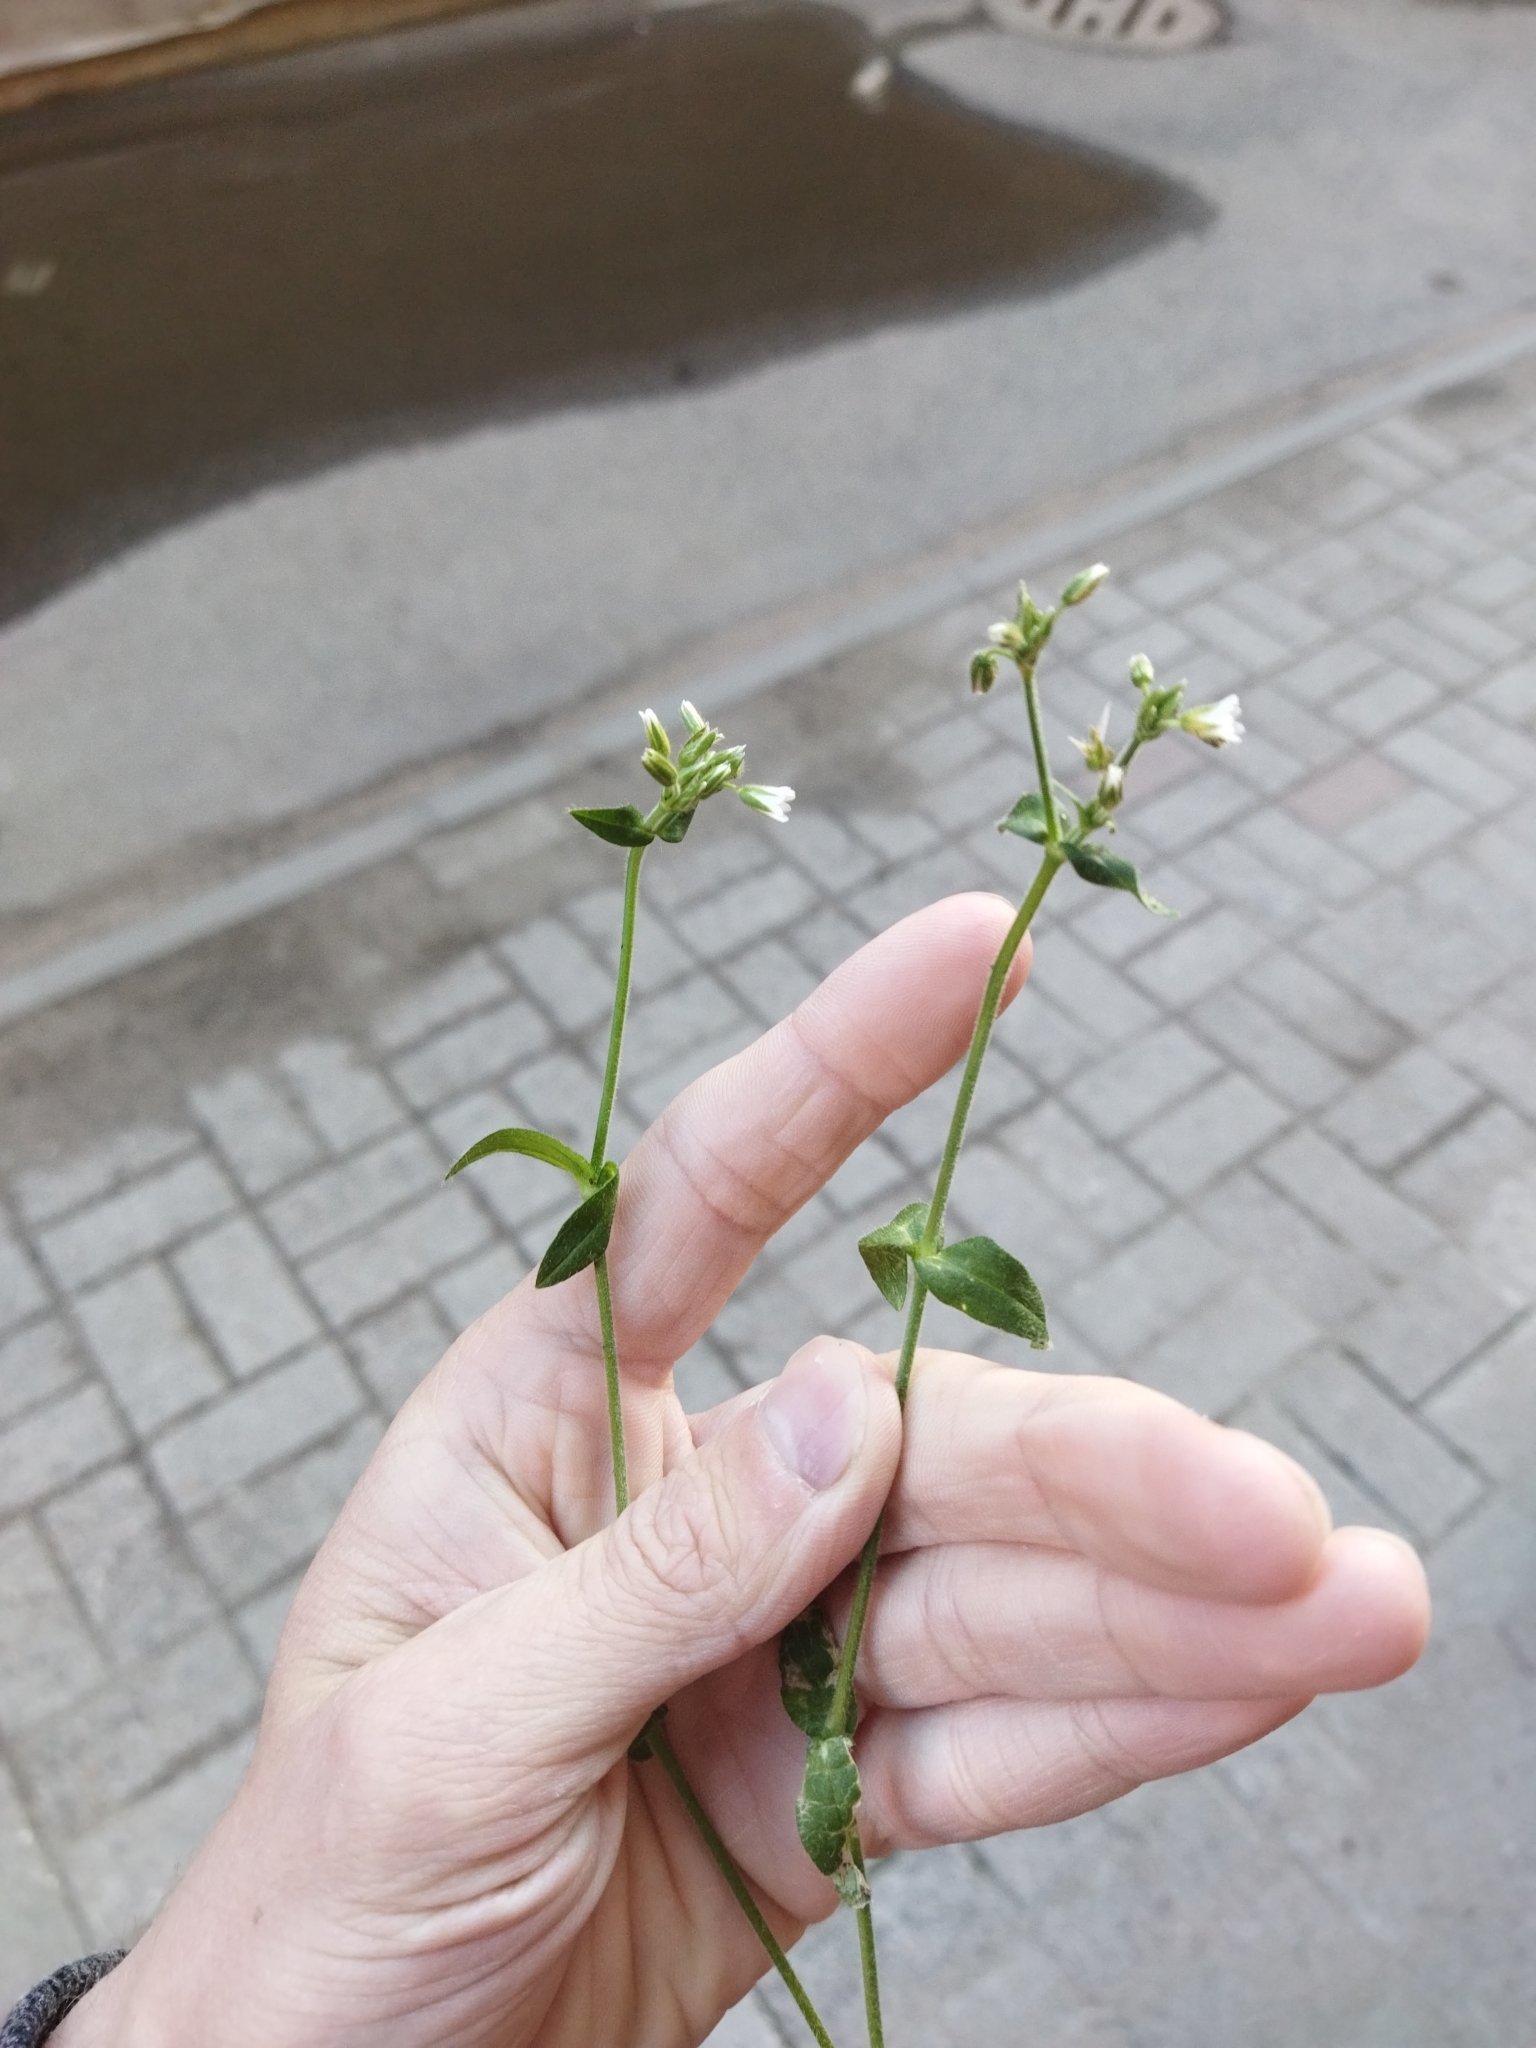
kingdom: Plantae
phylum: Tracheophyta
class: Magnoliopsida
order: Caryophyllales
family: Caryophyllaceae
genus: Cerastium
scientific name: Cerastium holosteoides
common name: Big chickweed
